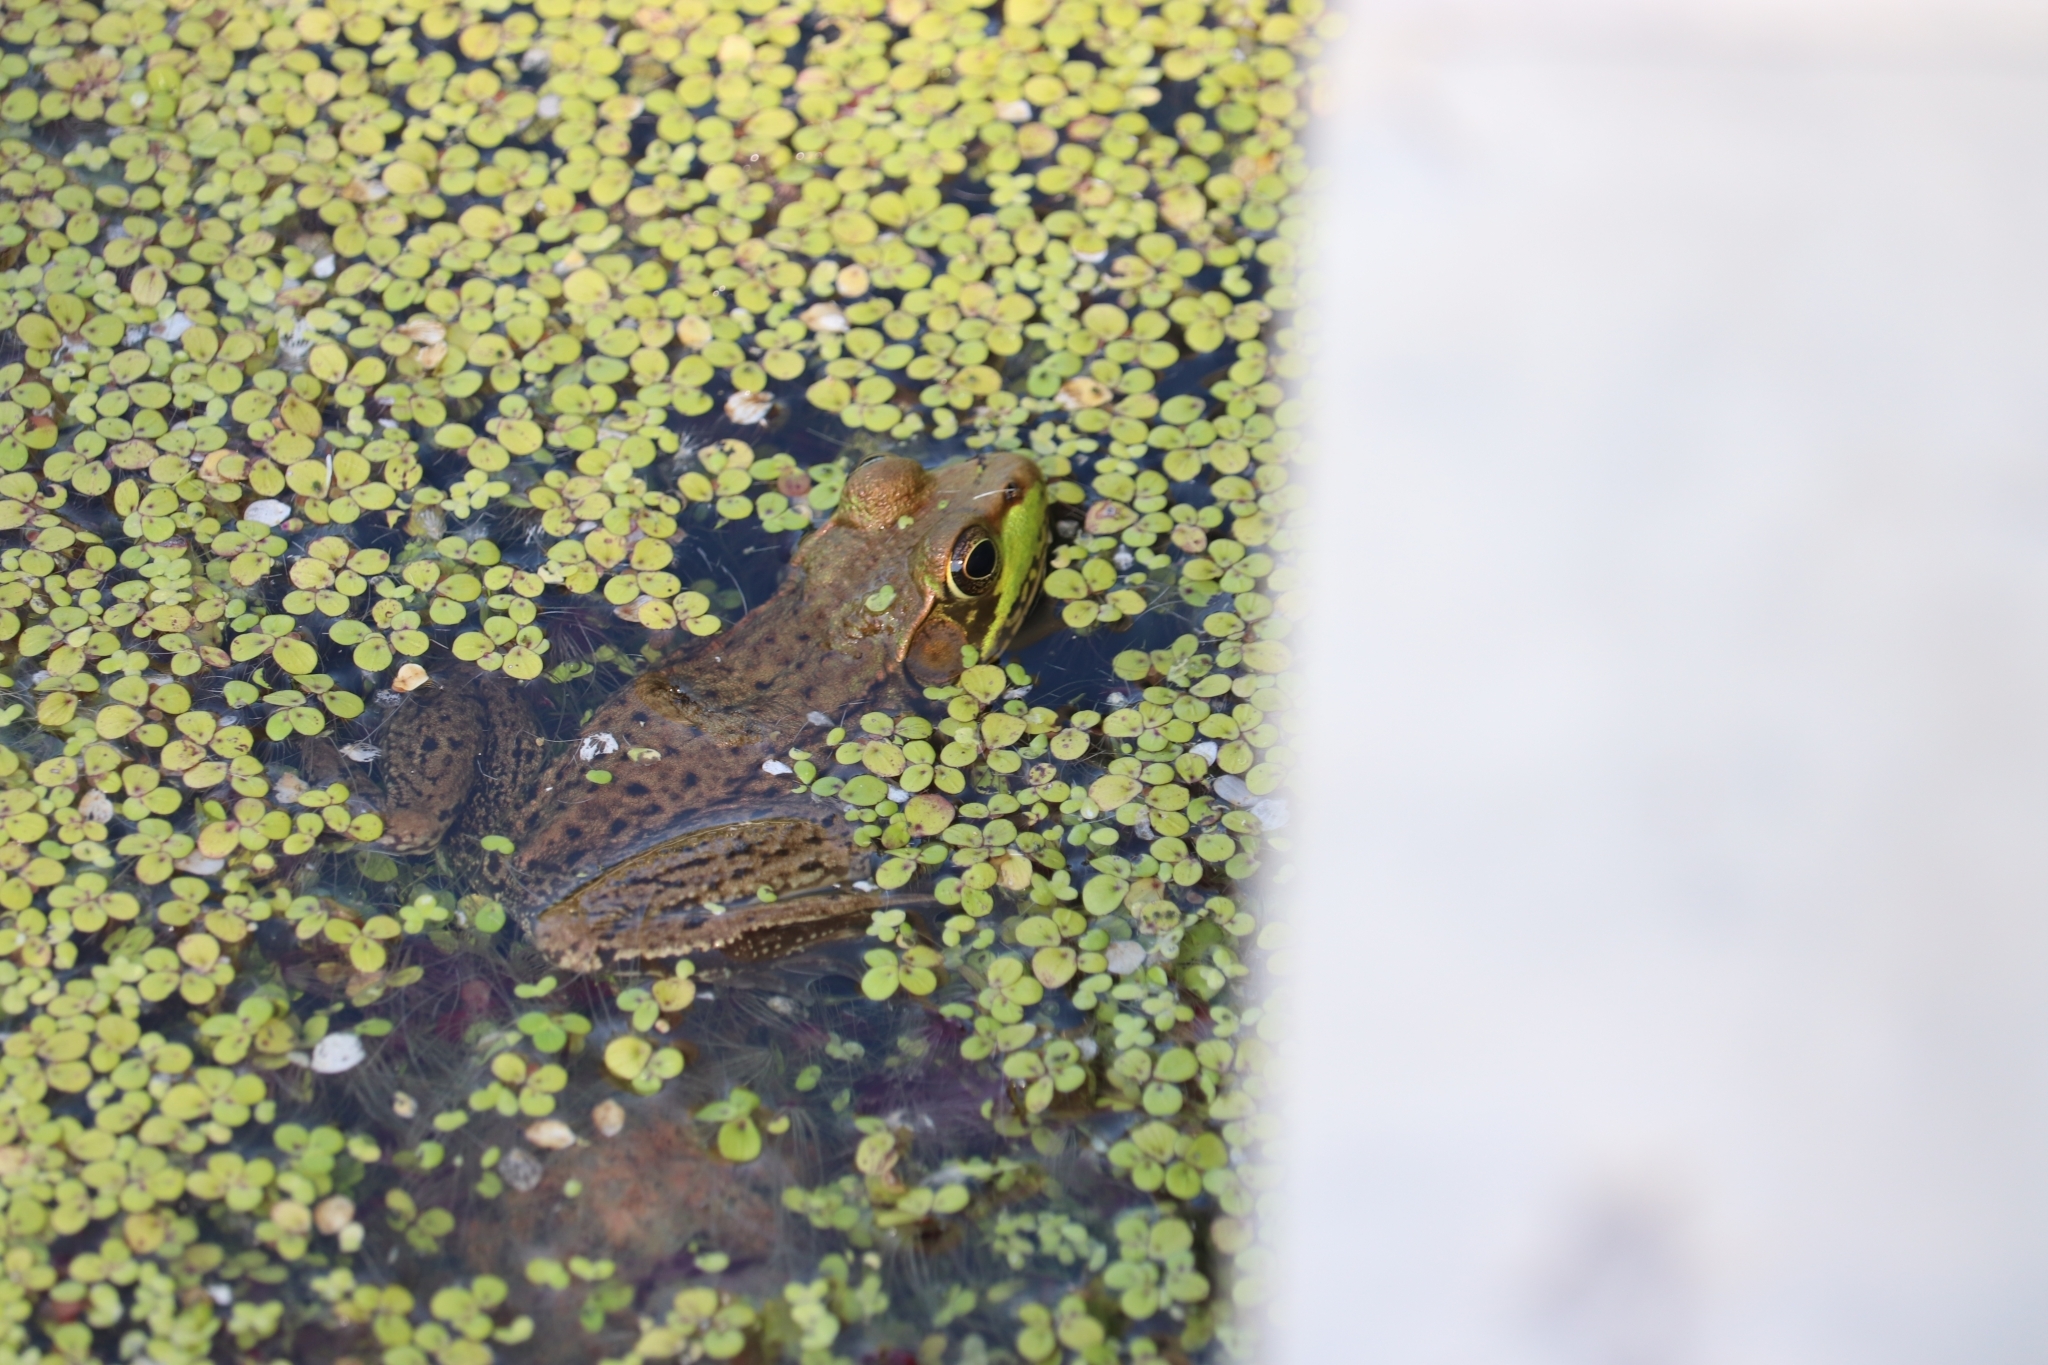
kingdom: Animalia
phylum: Chordata
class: Amphibia
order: Anura
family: Ranidae
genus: Lithobates
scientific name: Lithobates clamitans
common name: Green frog
